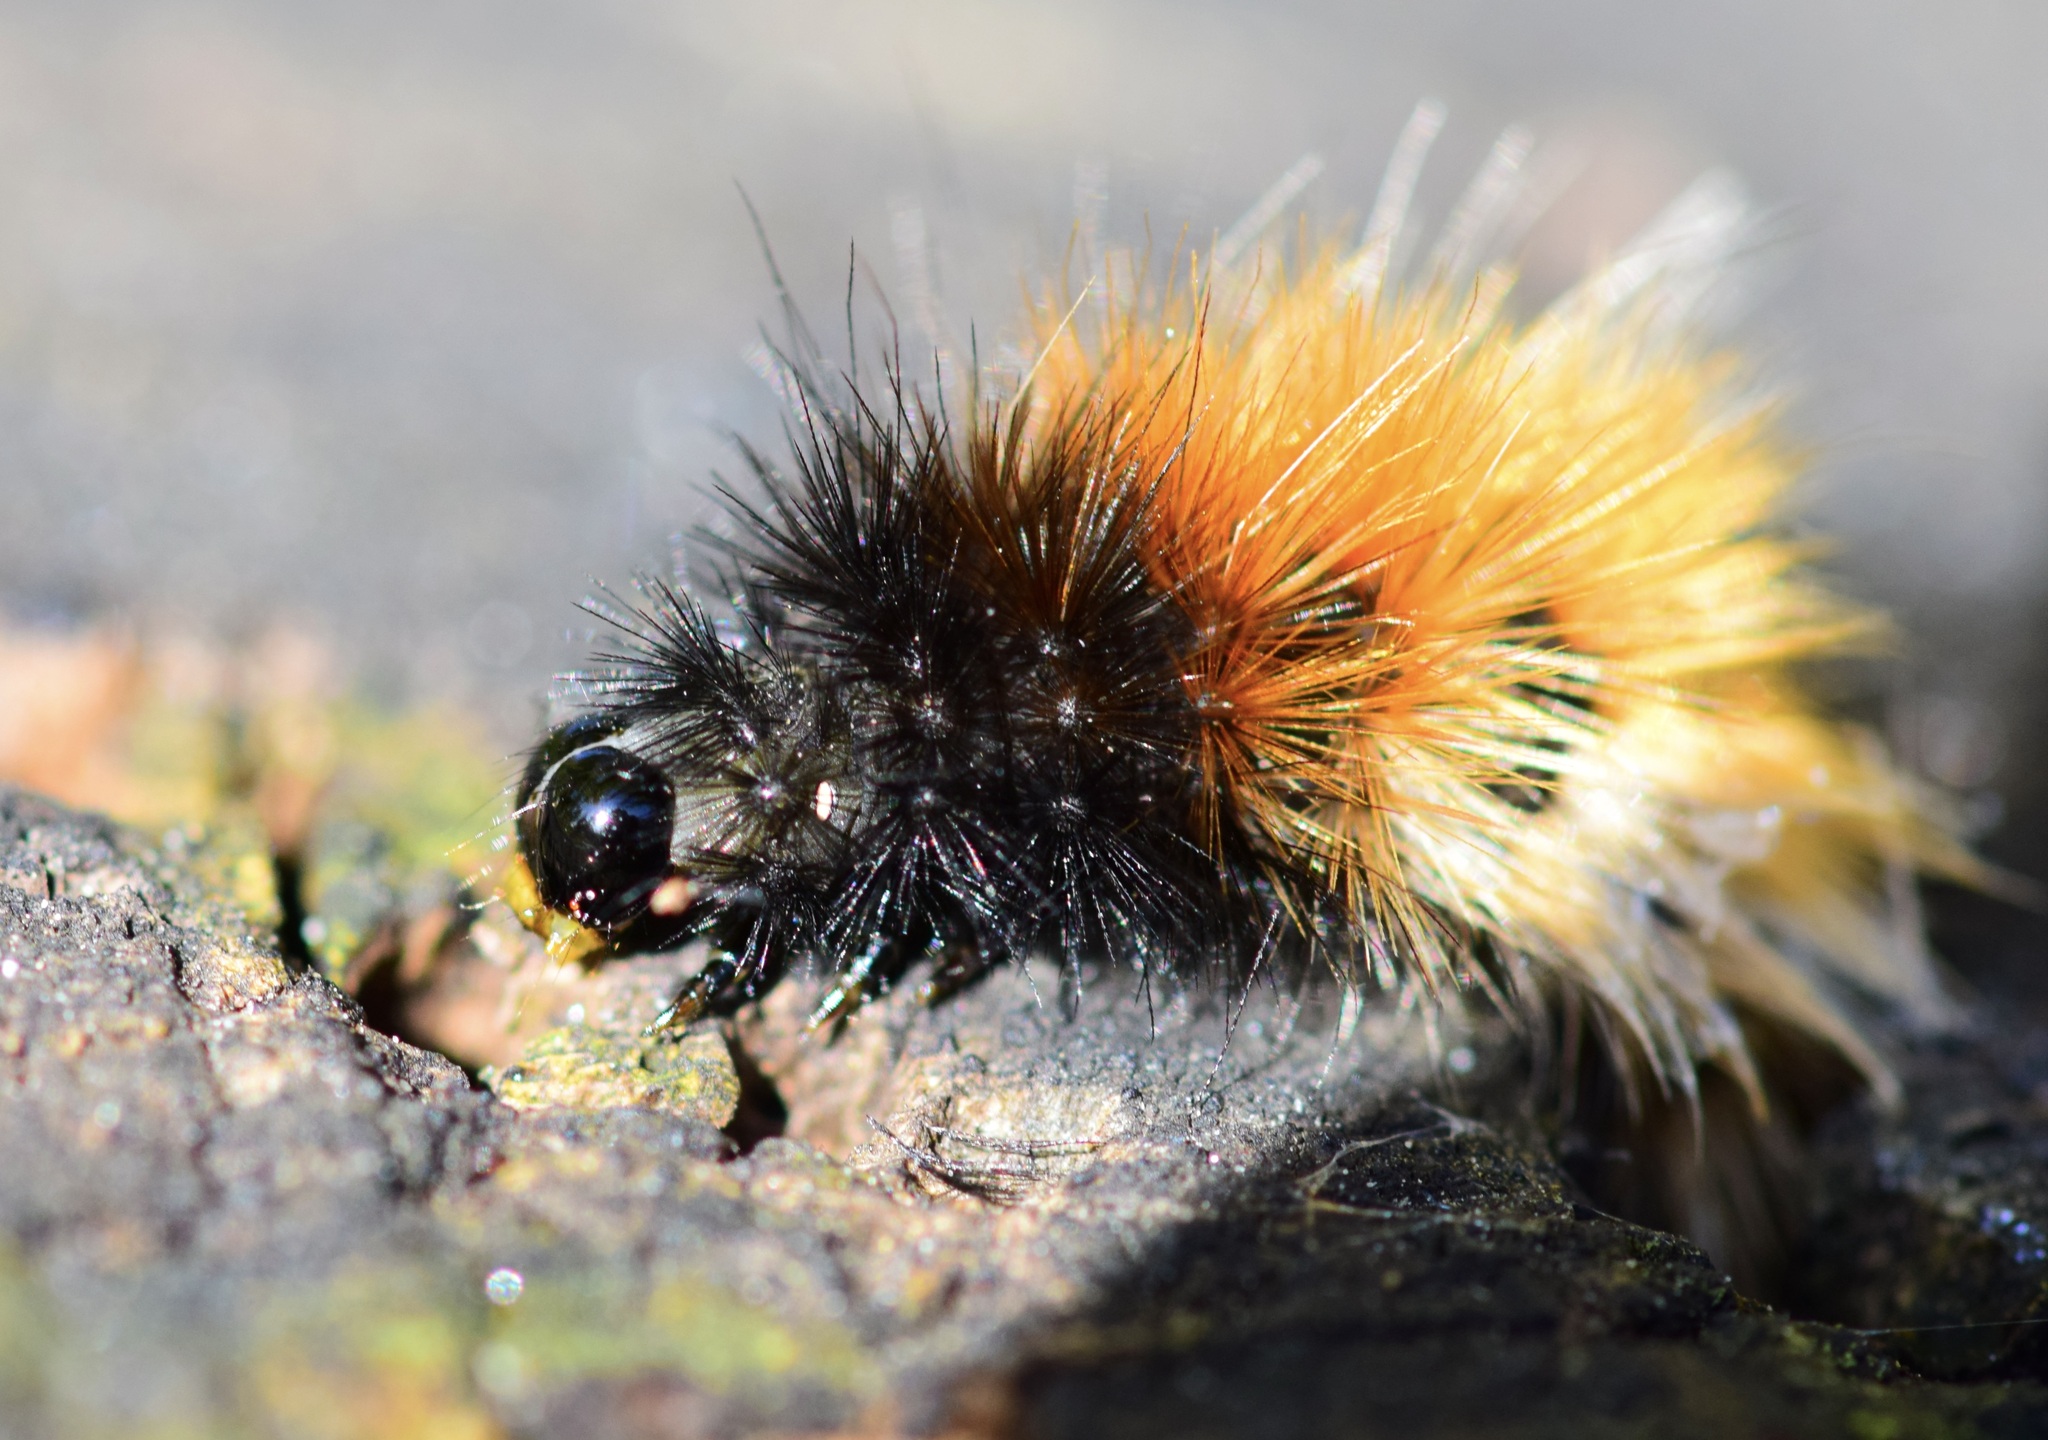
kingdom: Animalia
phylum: Arthropoda
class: Insecta
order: Lepidoptera
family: Erebidae
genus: Pyrrharctia
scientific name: Pyrrharctia isabella
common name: Isabella tiger moth
